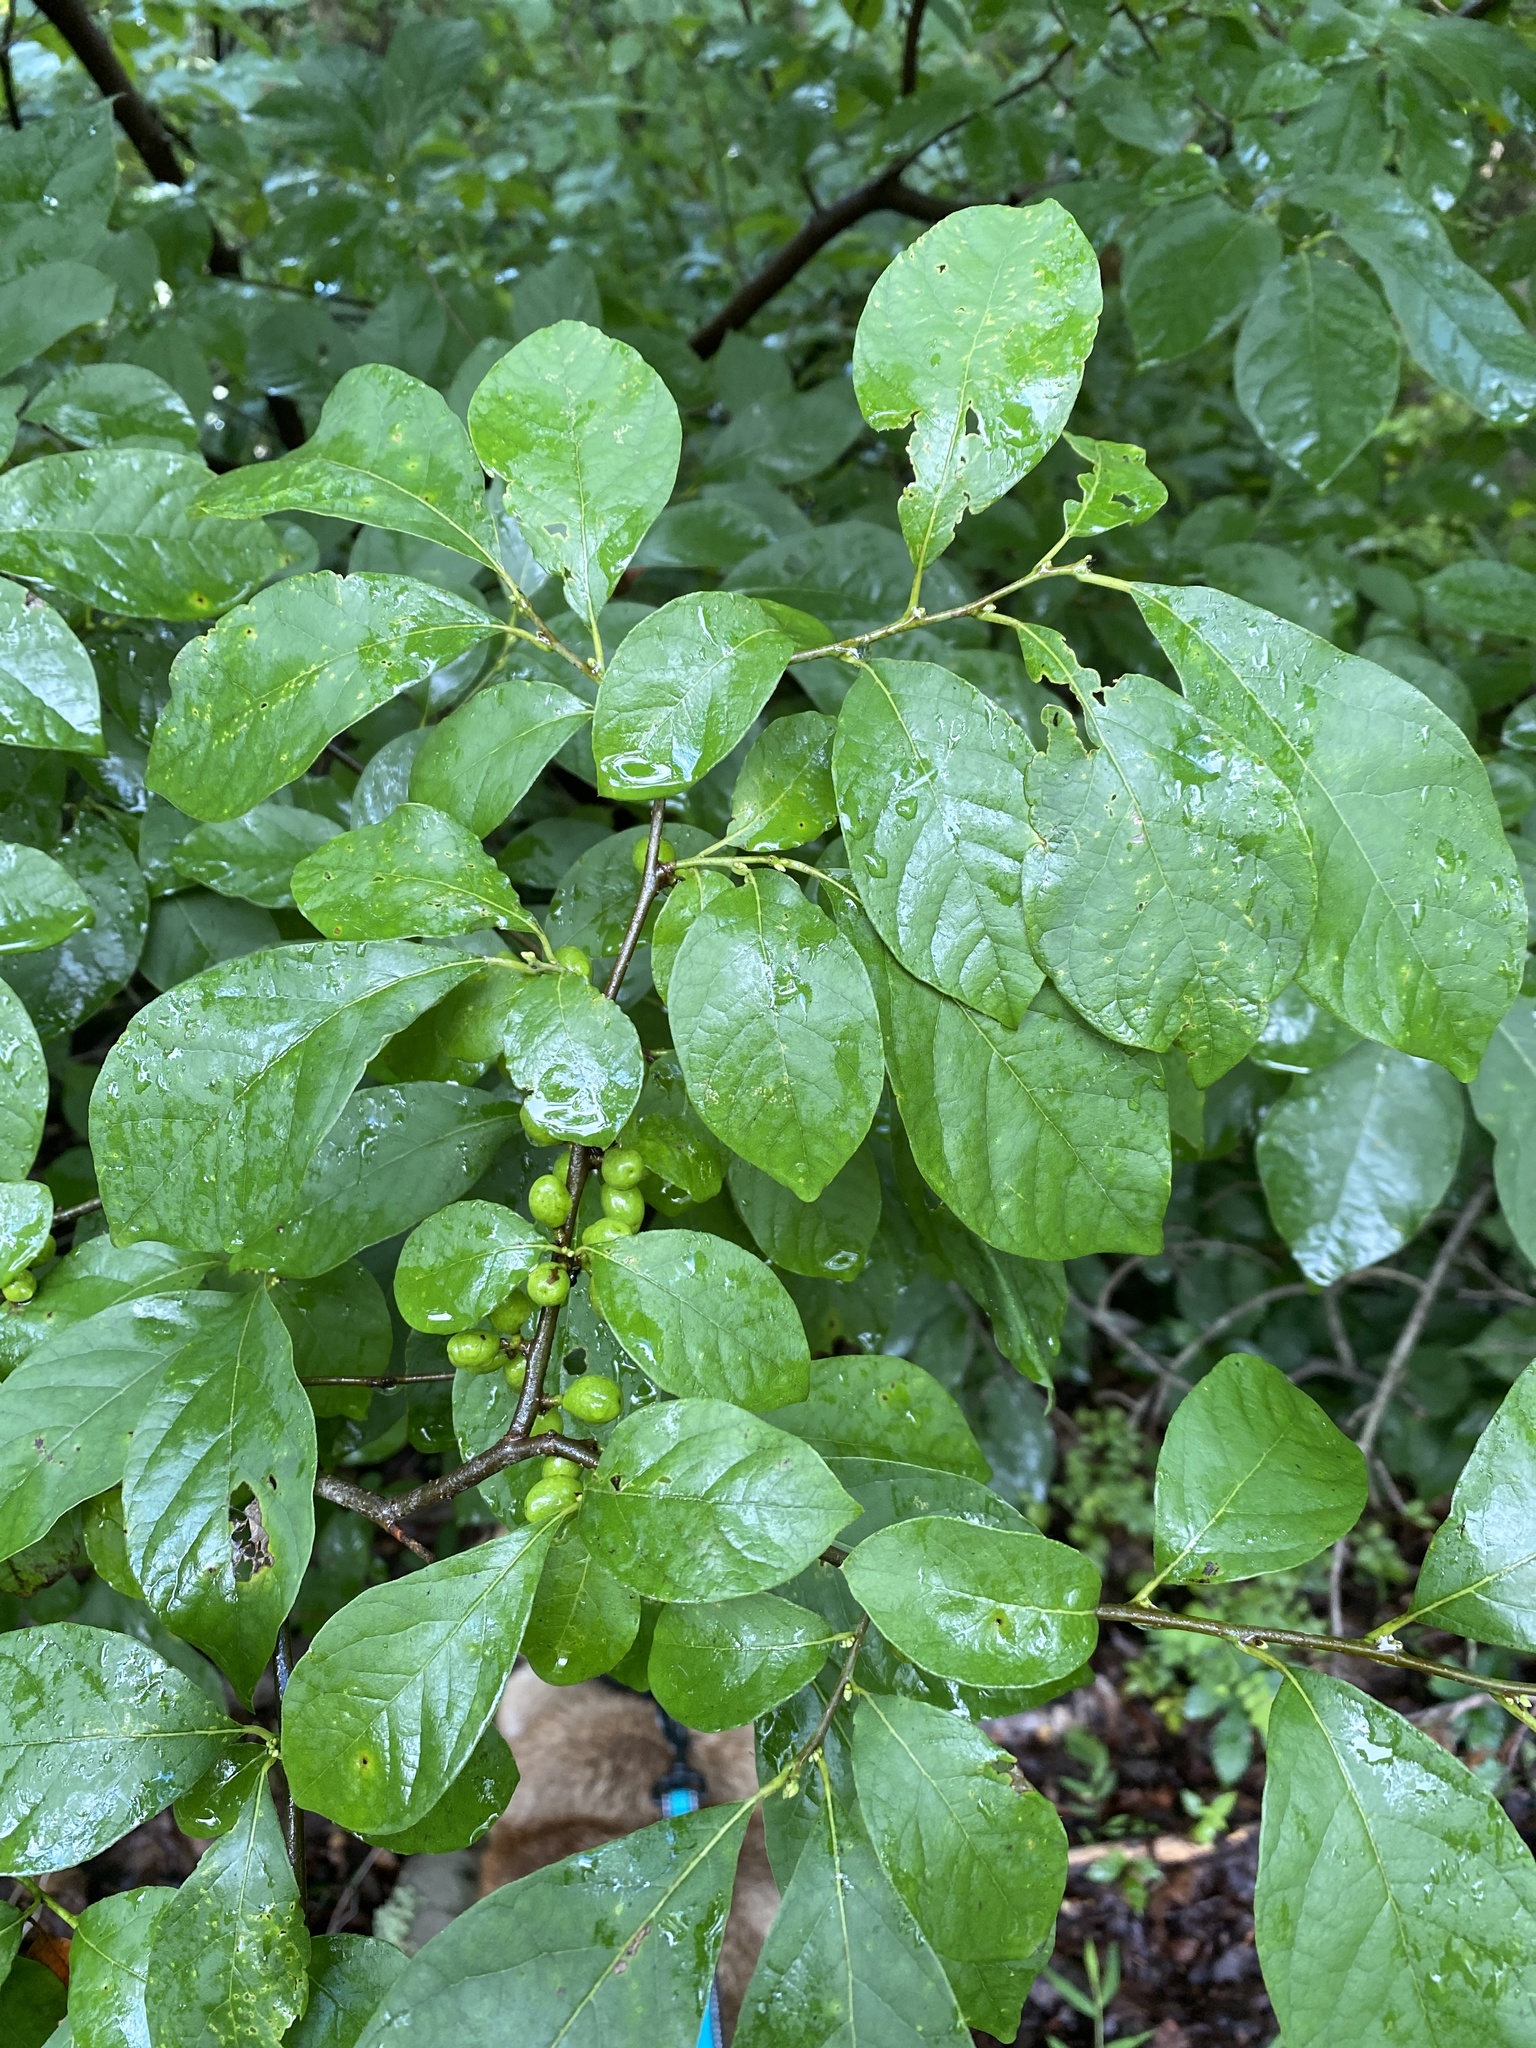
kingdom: Plantae
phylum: Tracheophyta
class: Magnoliopsida
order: Laurales
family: Lauraceae
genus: Lindera
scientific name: Lindera benzoin
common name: Spicebush
